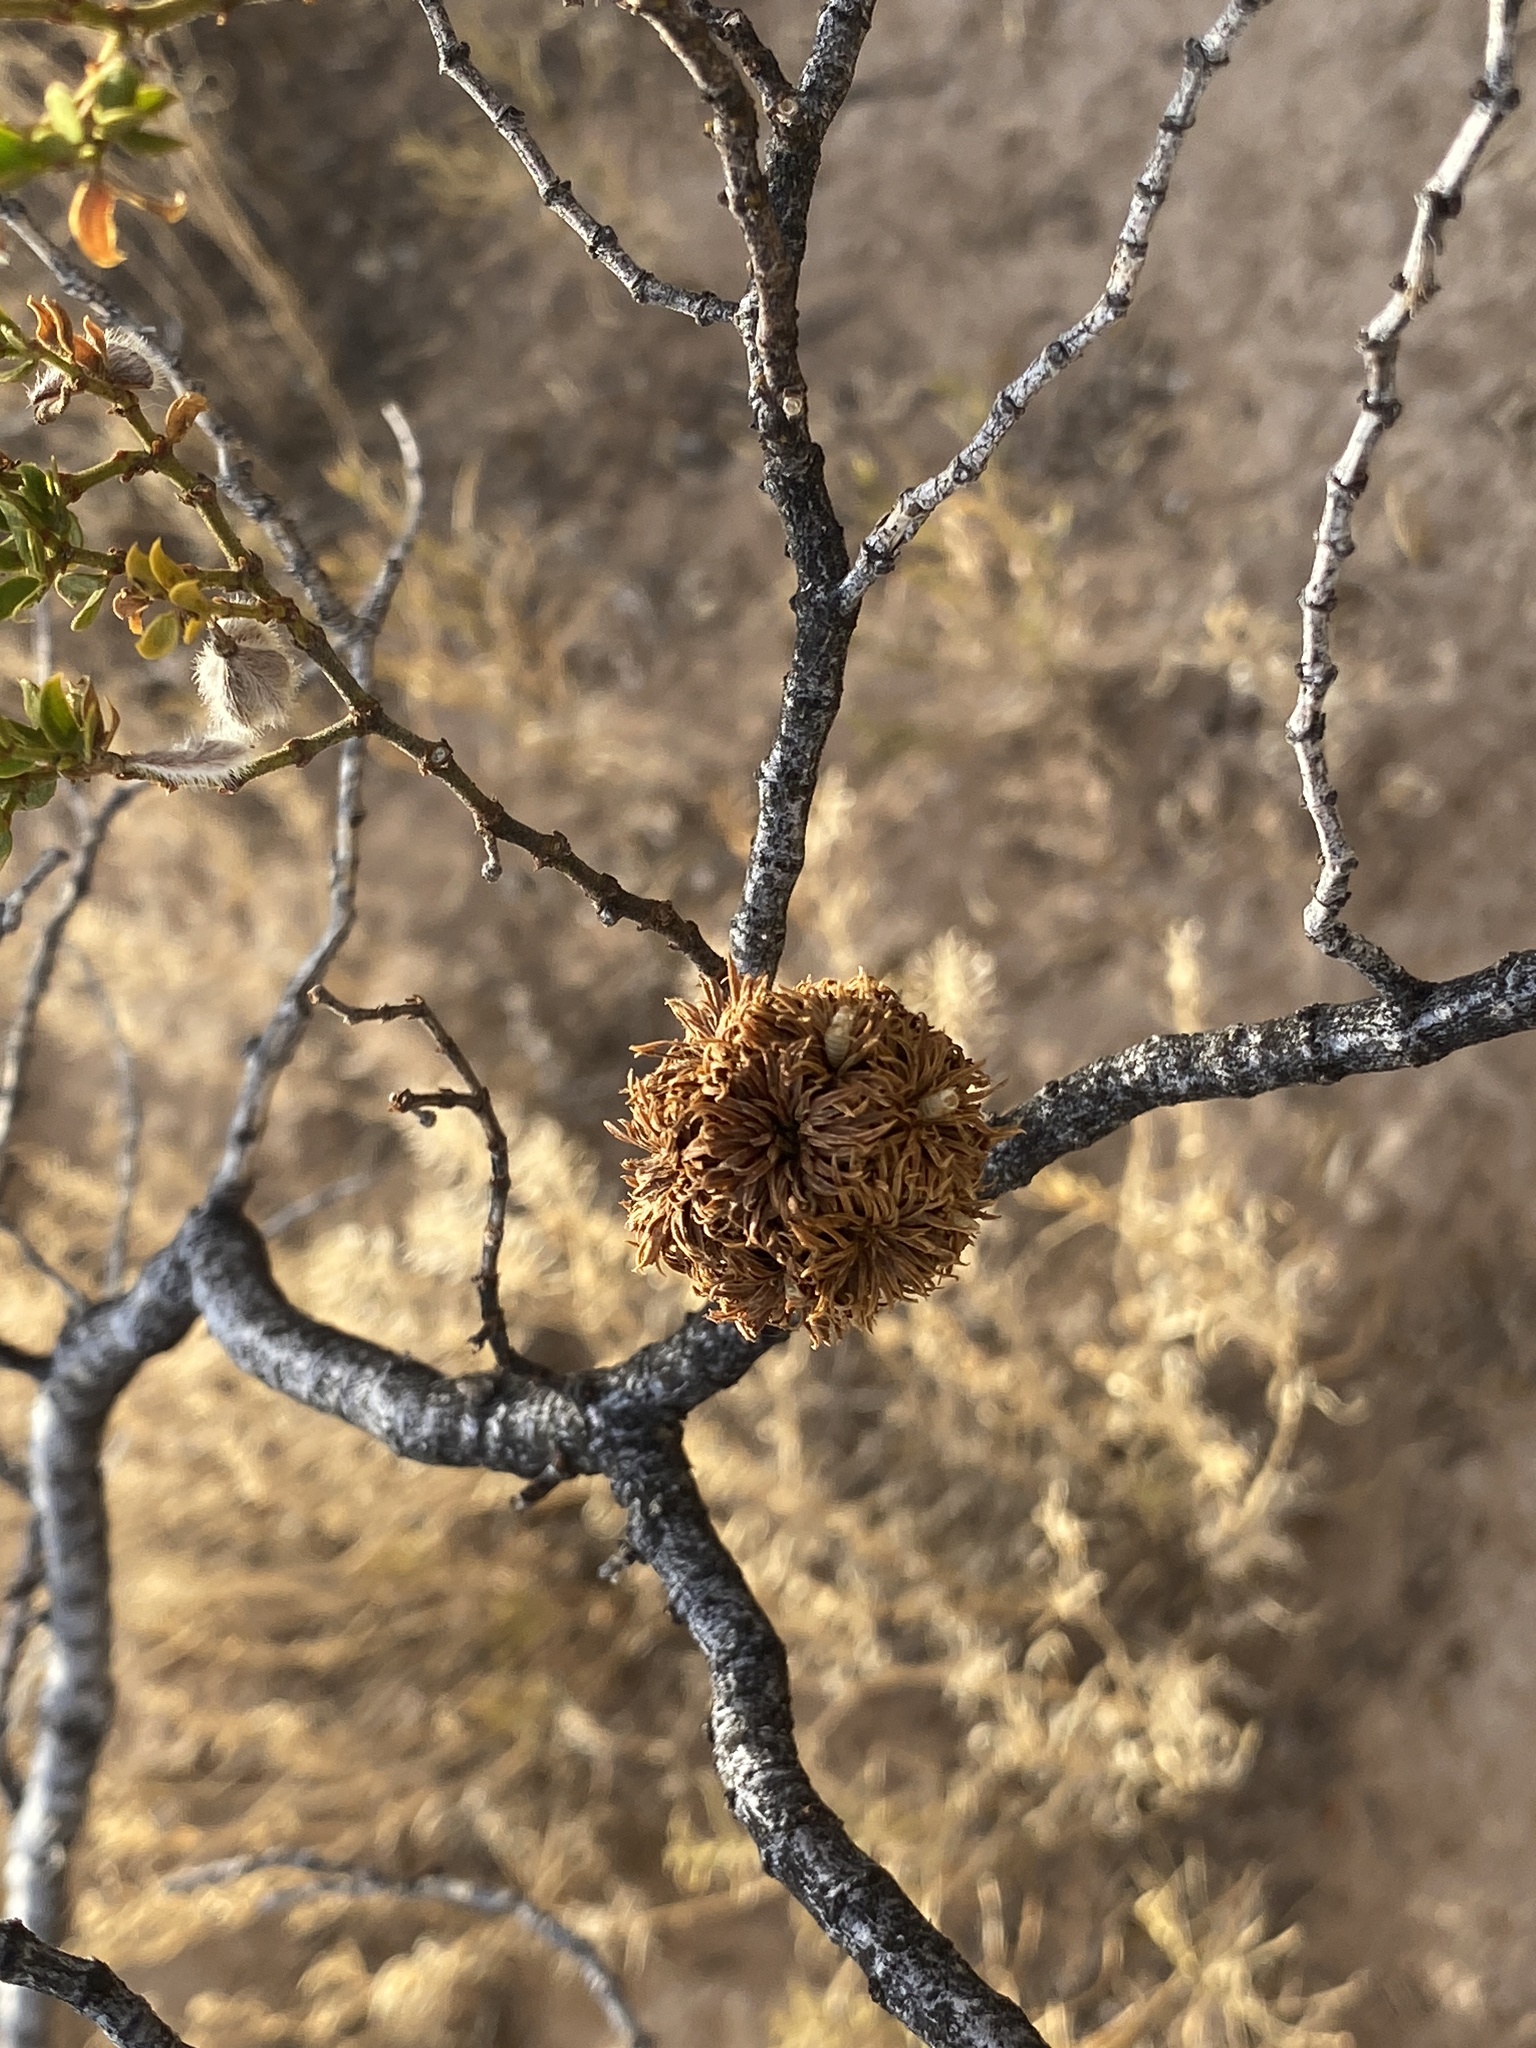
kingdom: Animalia
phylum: Arthropoda
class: Insecta
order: Diptera
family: Cecidomyiidae
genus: Asphondylia
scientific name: Asphondylia auripila
